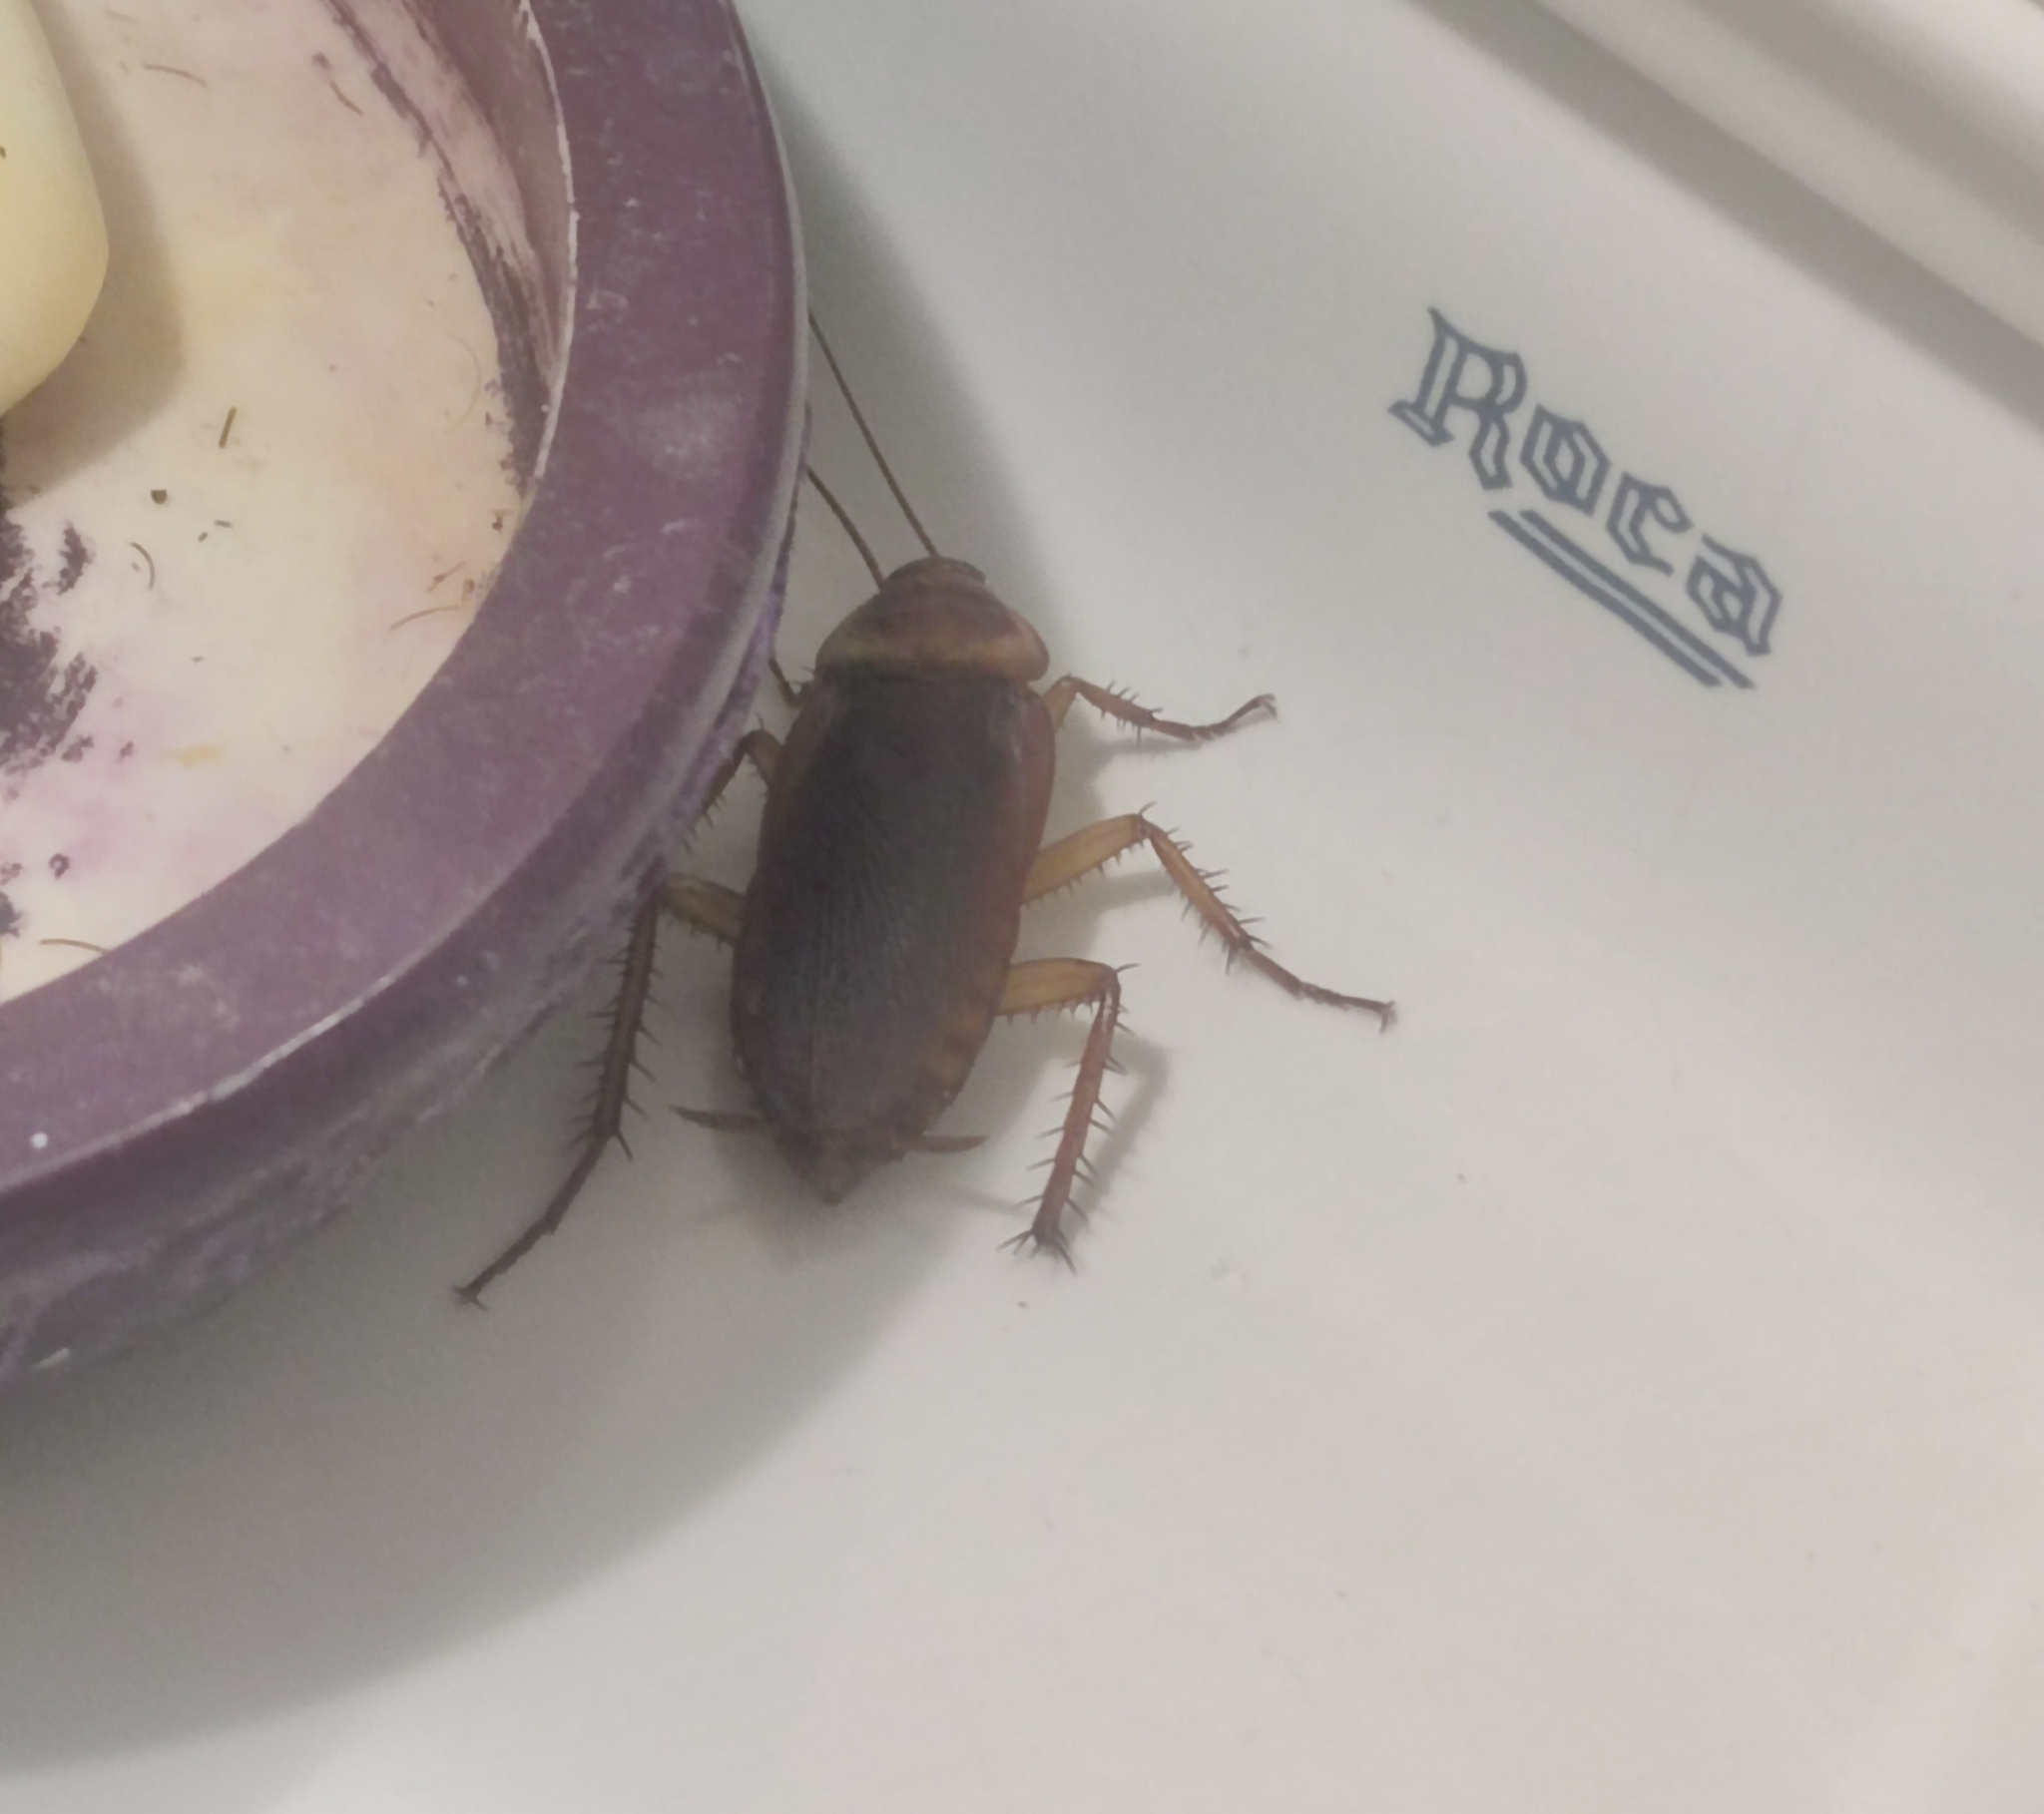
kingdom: Animalia
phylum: Arthropoda
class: Insecta
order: Blattodea
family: Blattidae
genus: Periplaneta
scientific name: Periplaneta americana
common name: American cockroach
